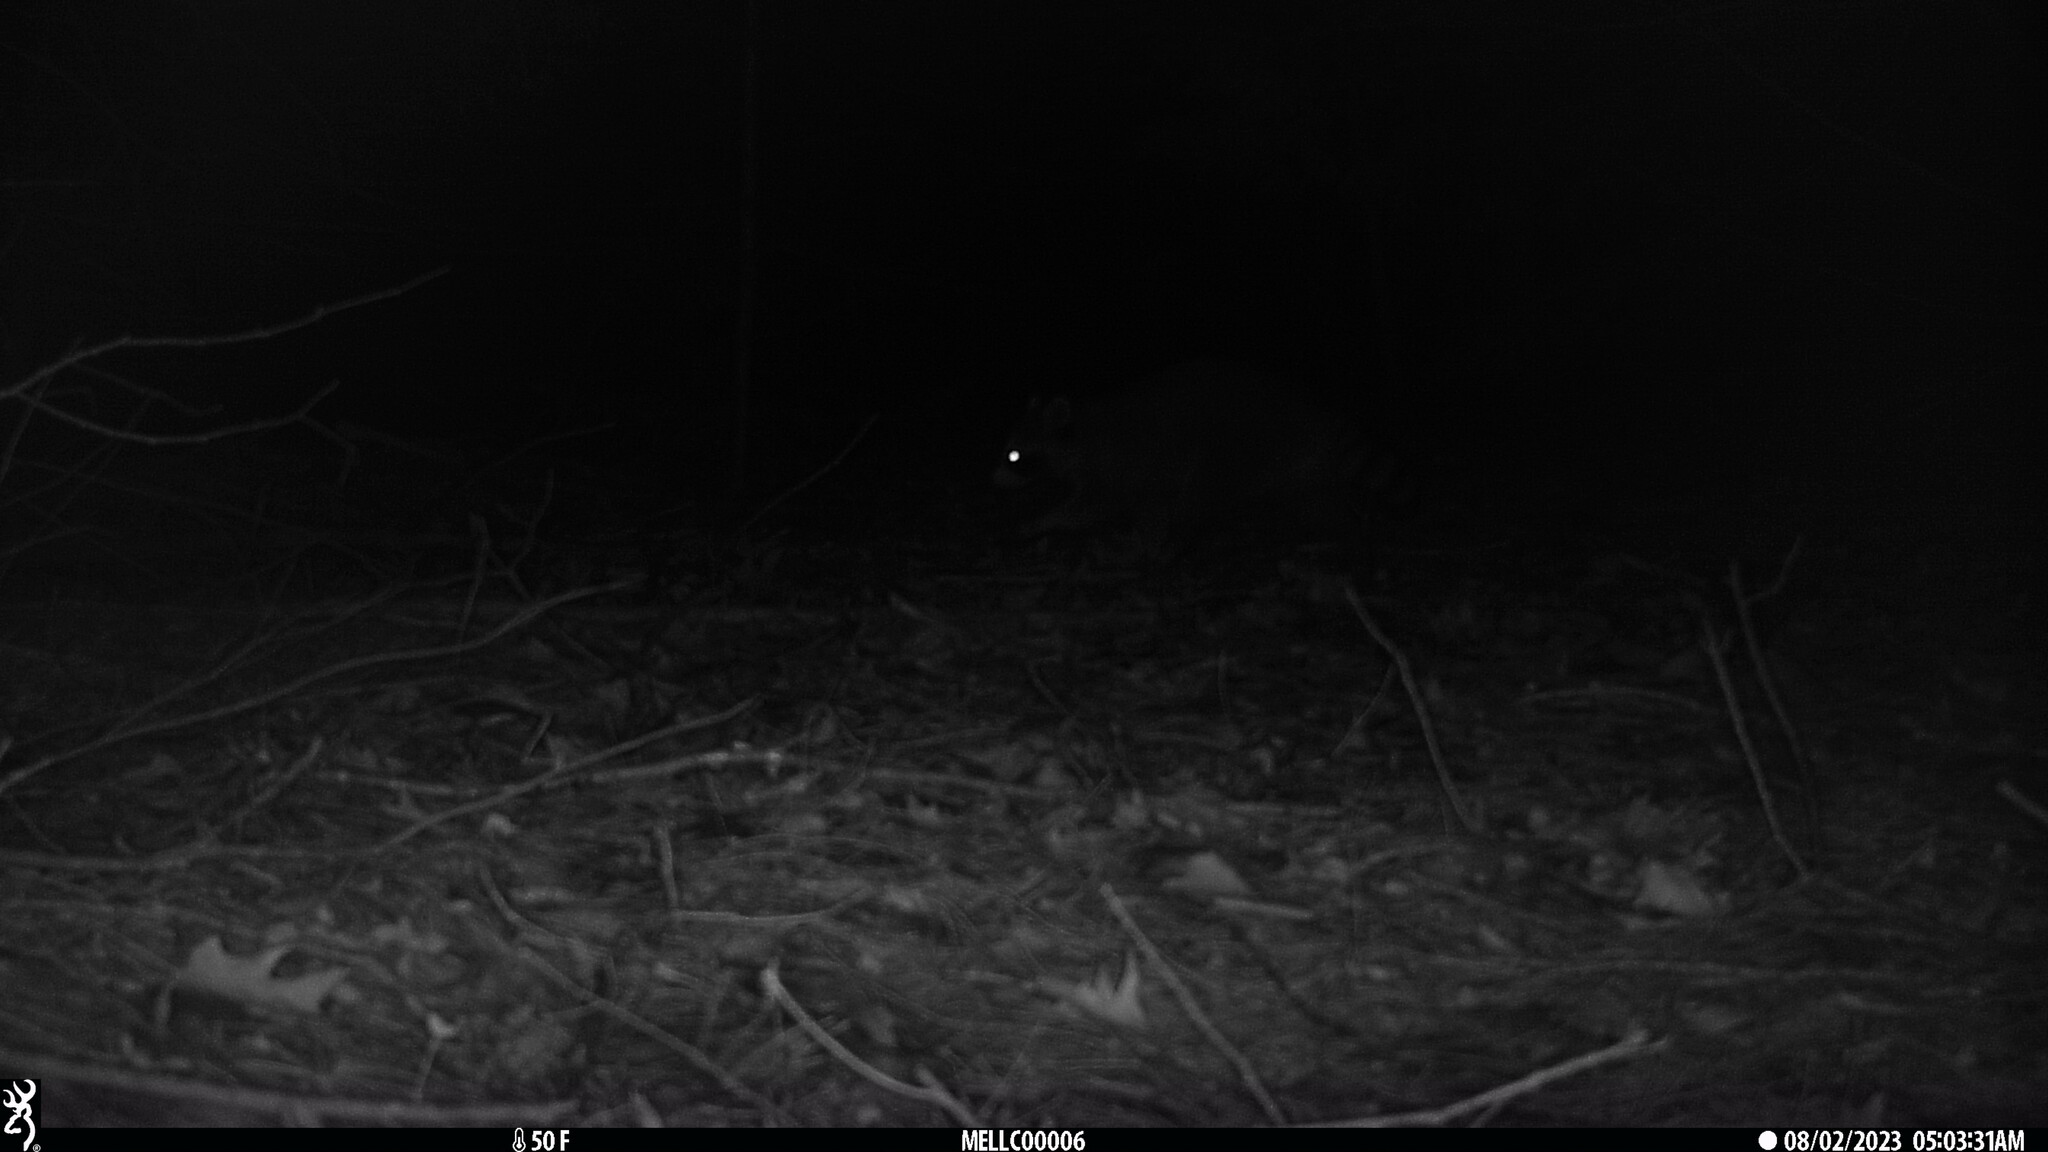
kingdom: Animalia
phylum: Chordata
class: Mammalia
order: Carnivora
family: Procyonidae
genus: Procyon
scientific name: Procyon lotor
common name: Raccoon
